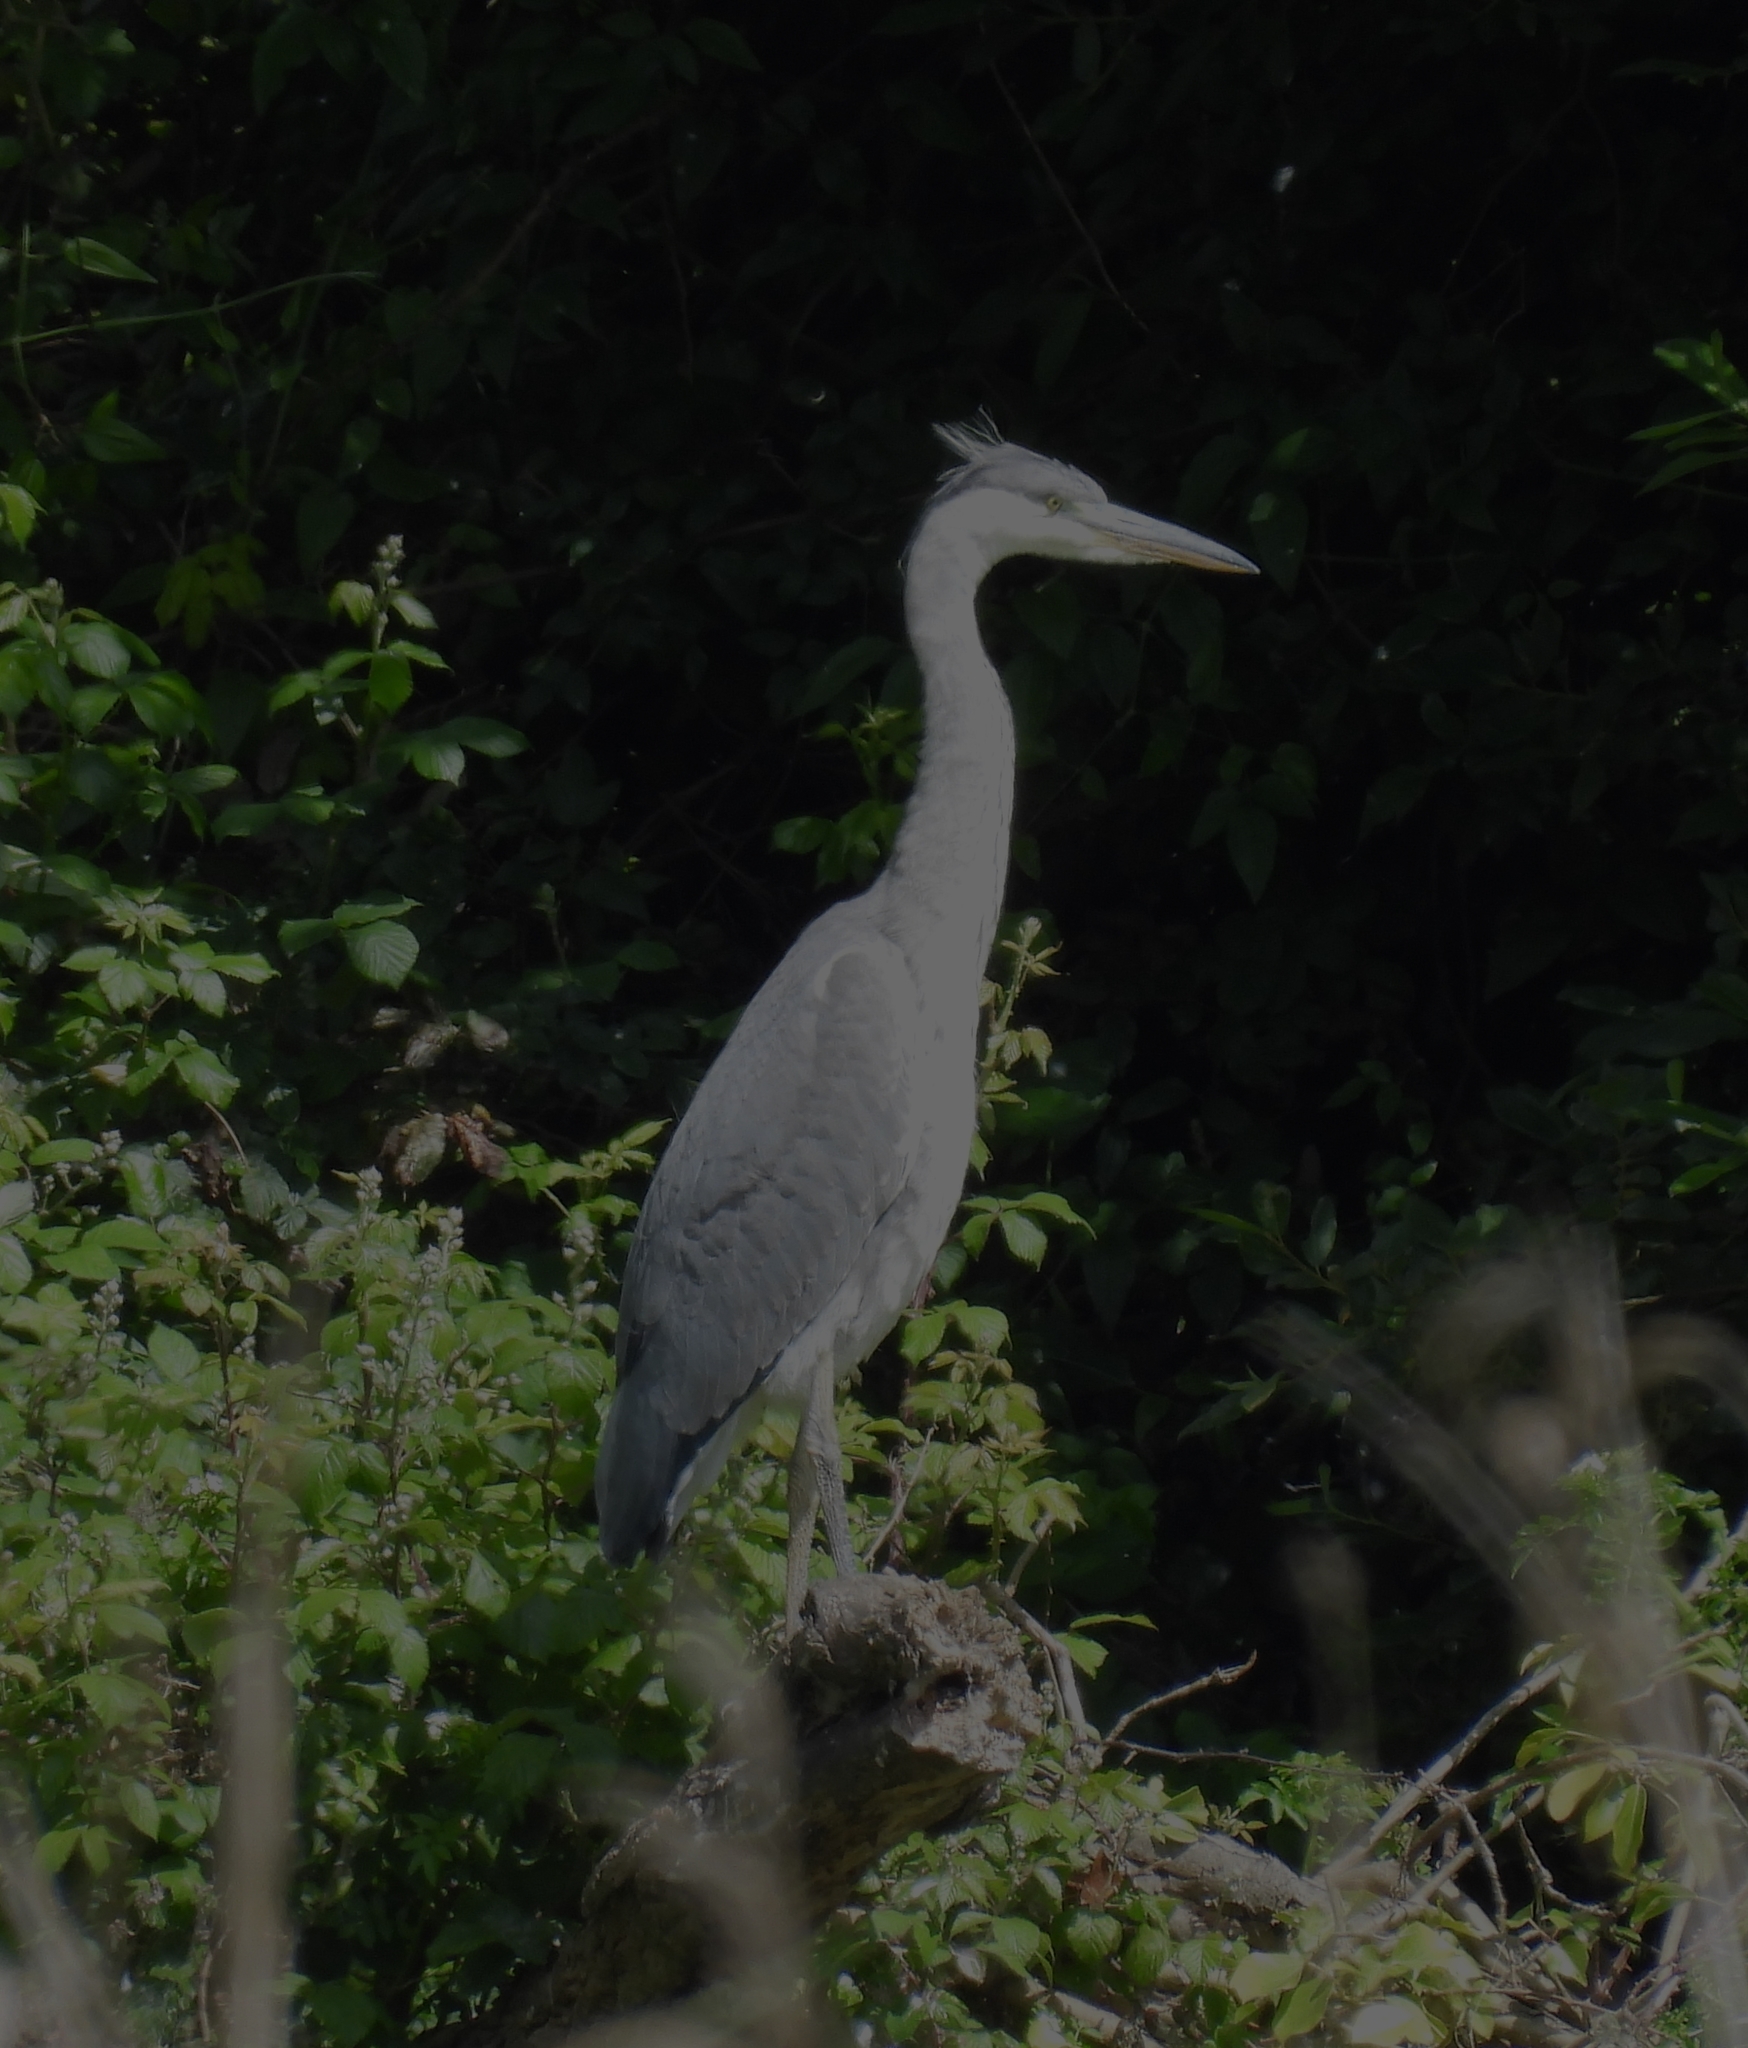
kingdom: Animalia
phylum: Chordata
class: Aves
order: Pelecaniformes
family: Ardeidae
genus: Ardea
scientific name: Ardea cinerea
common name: Grey heron
